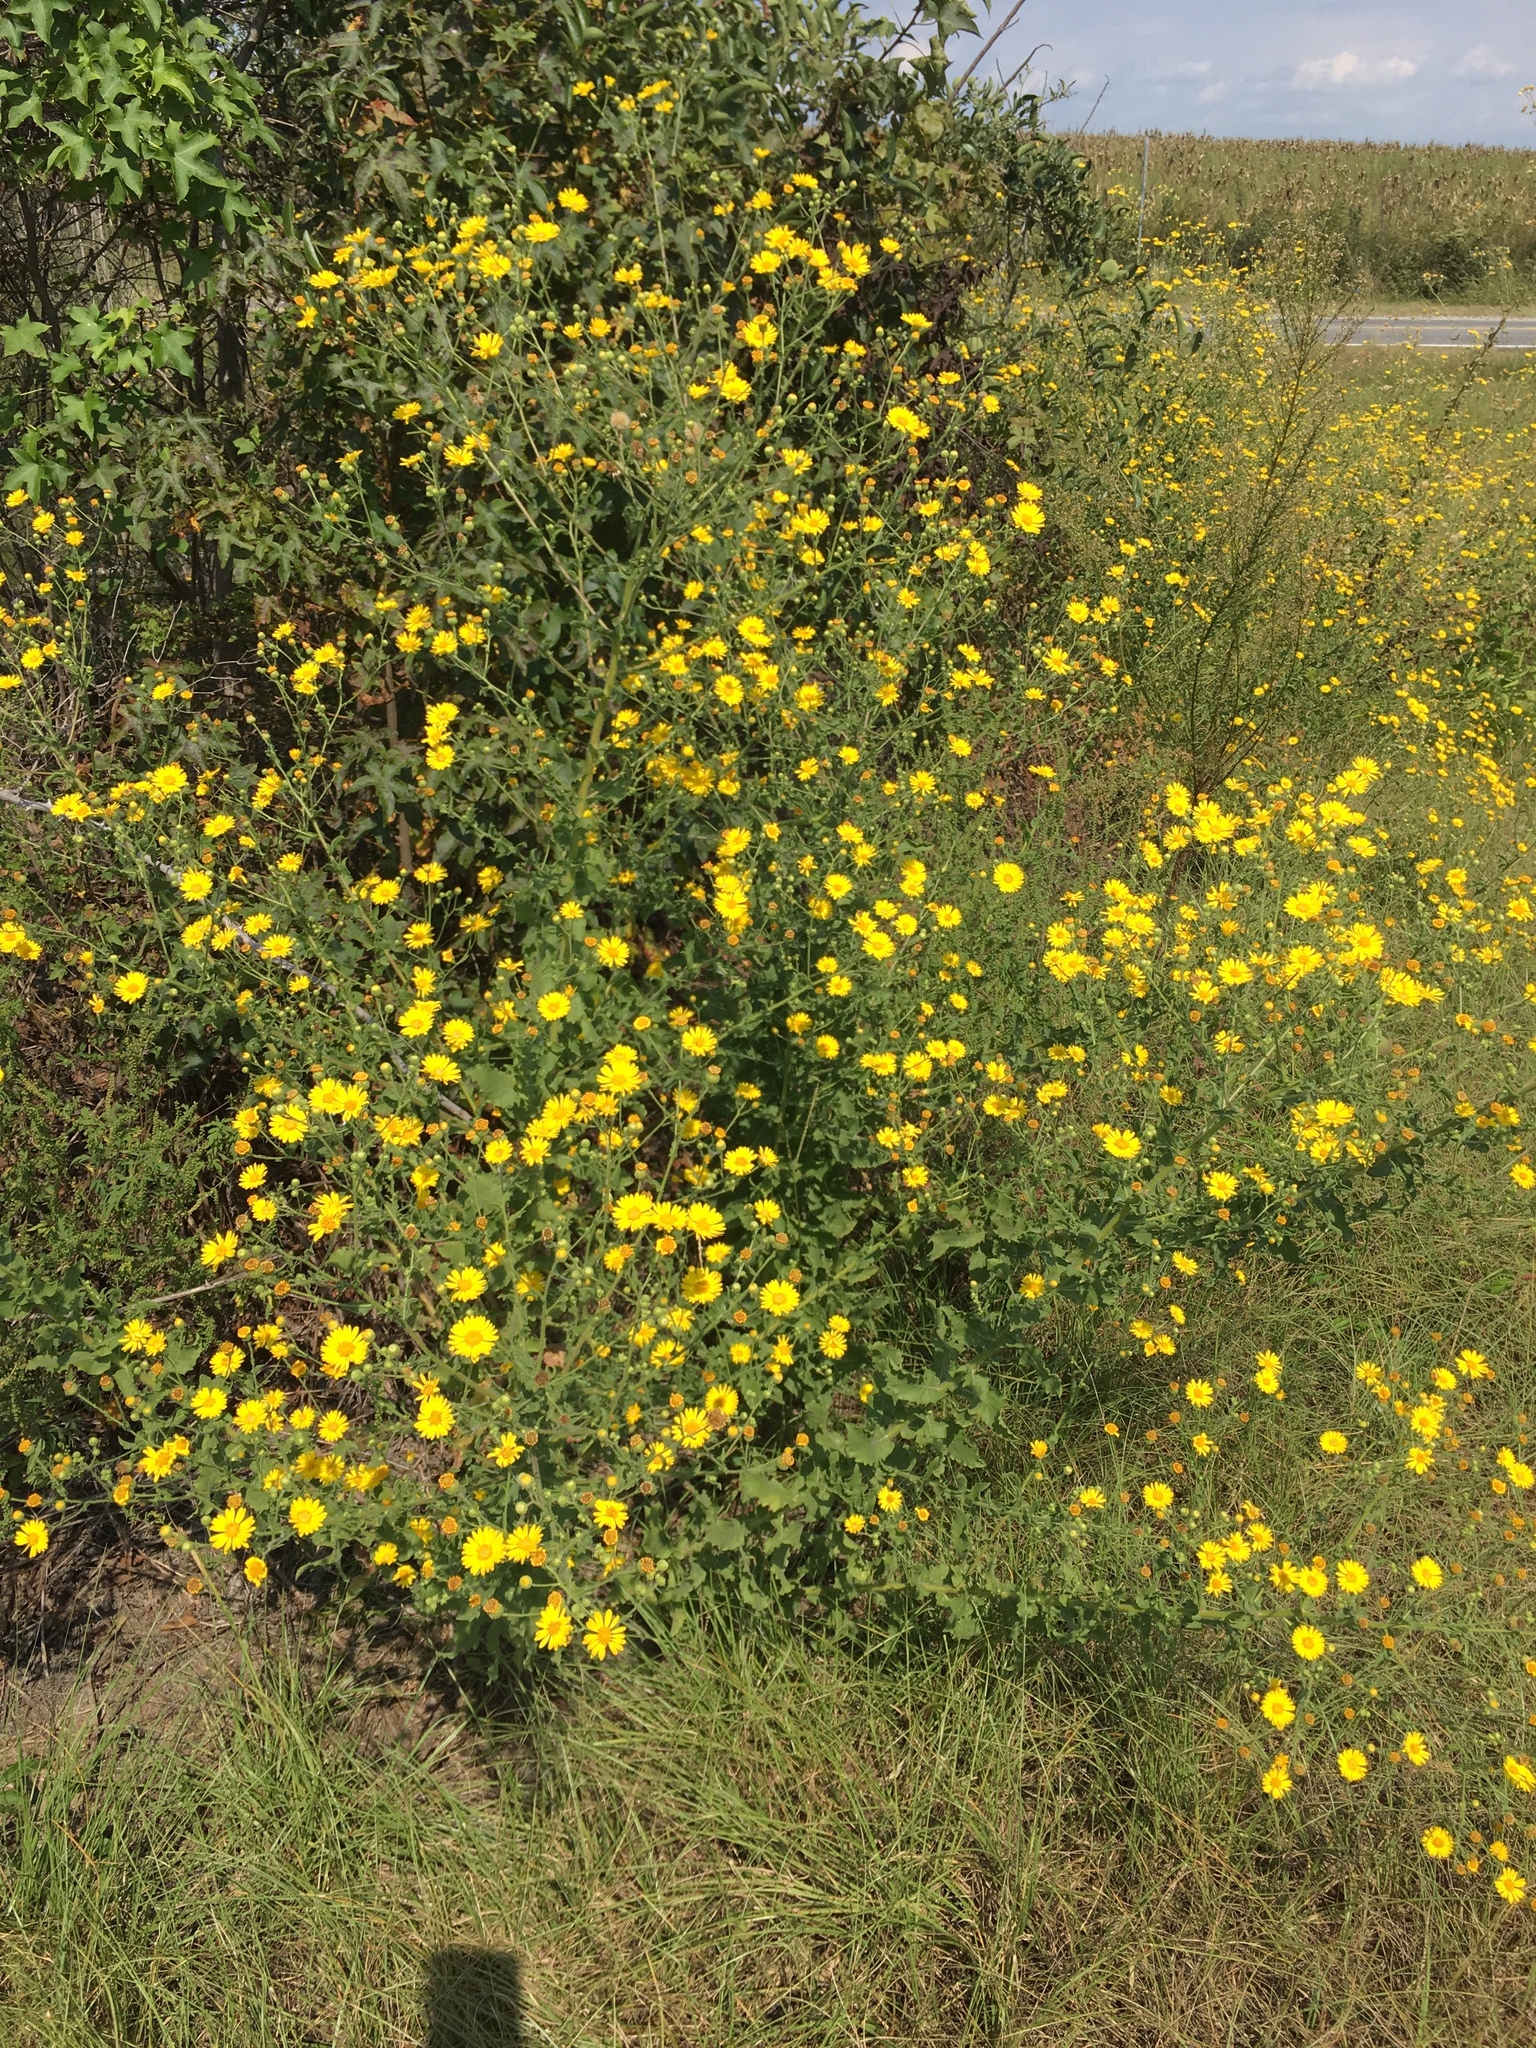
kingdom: Plantae
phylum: Tracheophyta
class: Magnoliopsida
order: Asterales
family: Asteraceae
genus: Heterotheca
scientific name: Heterotheca subaxillaris
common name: Camphorweed
